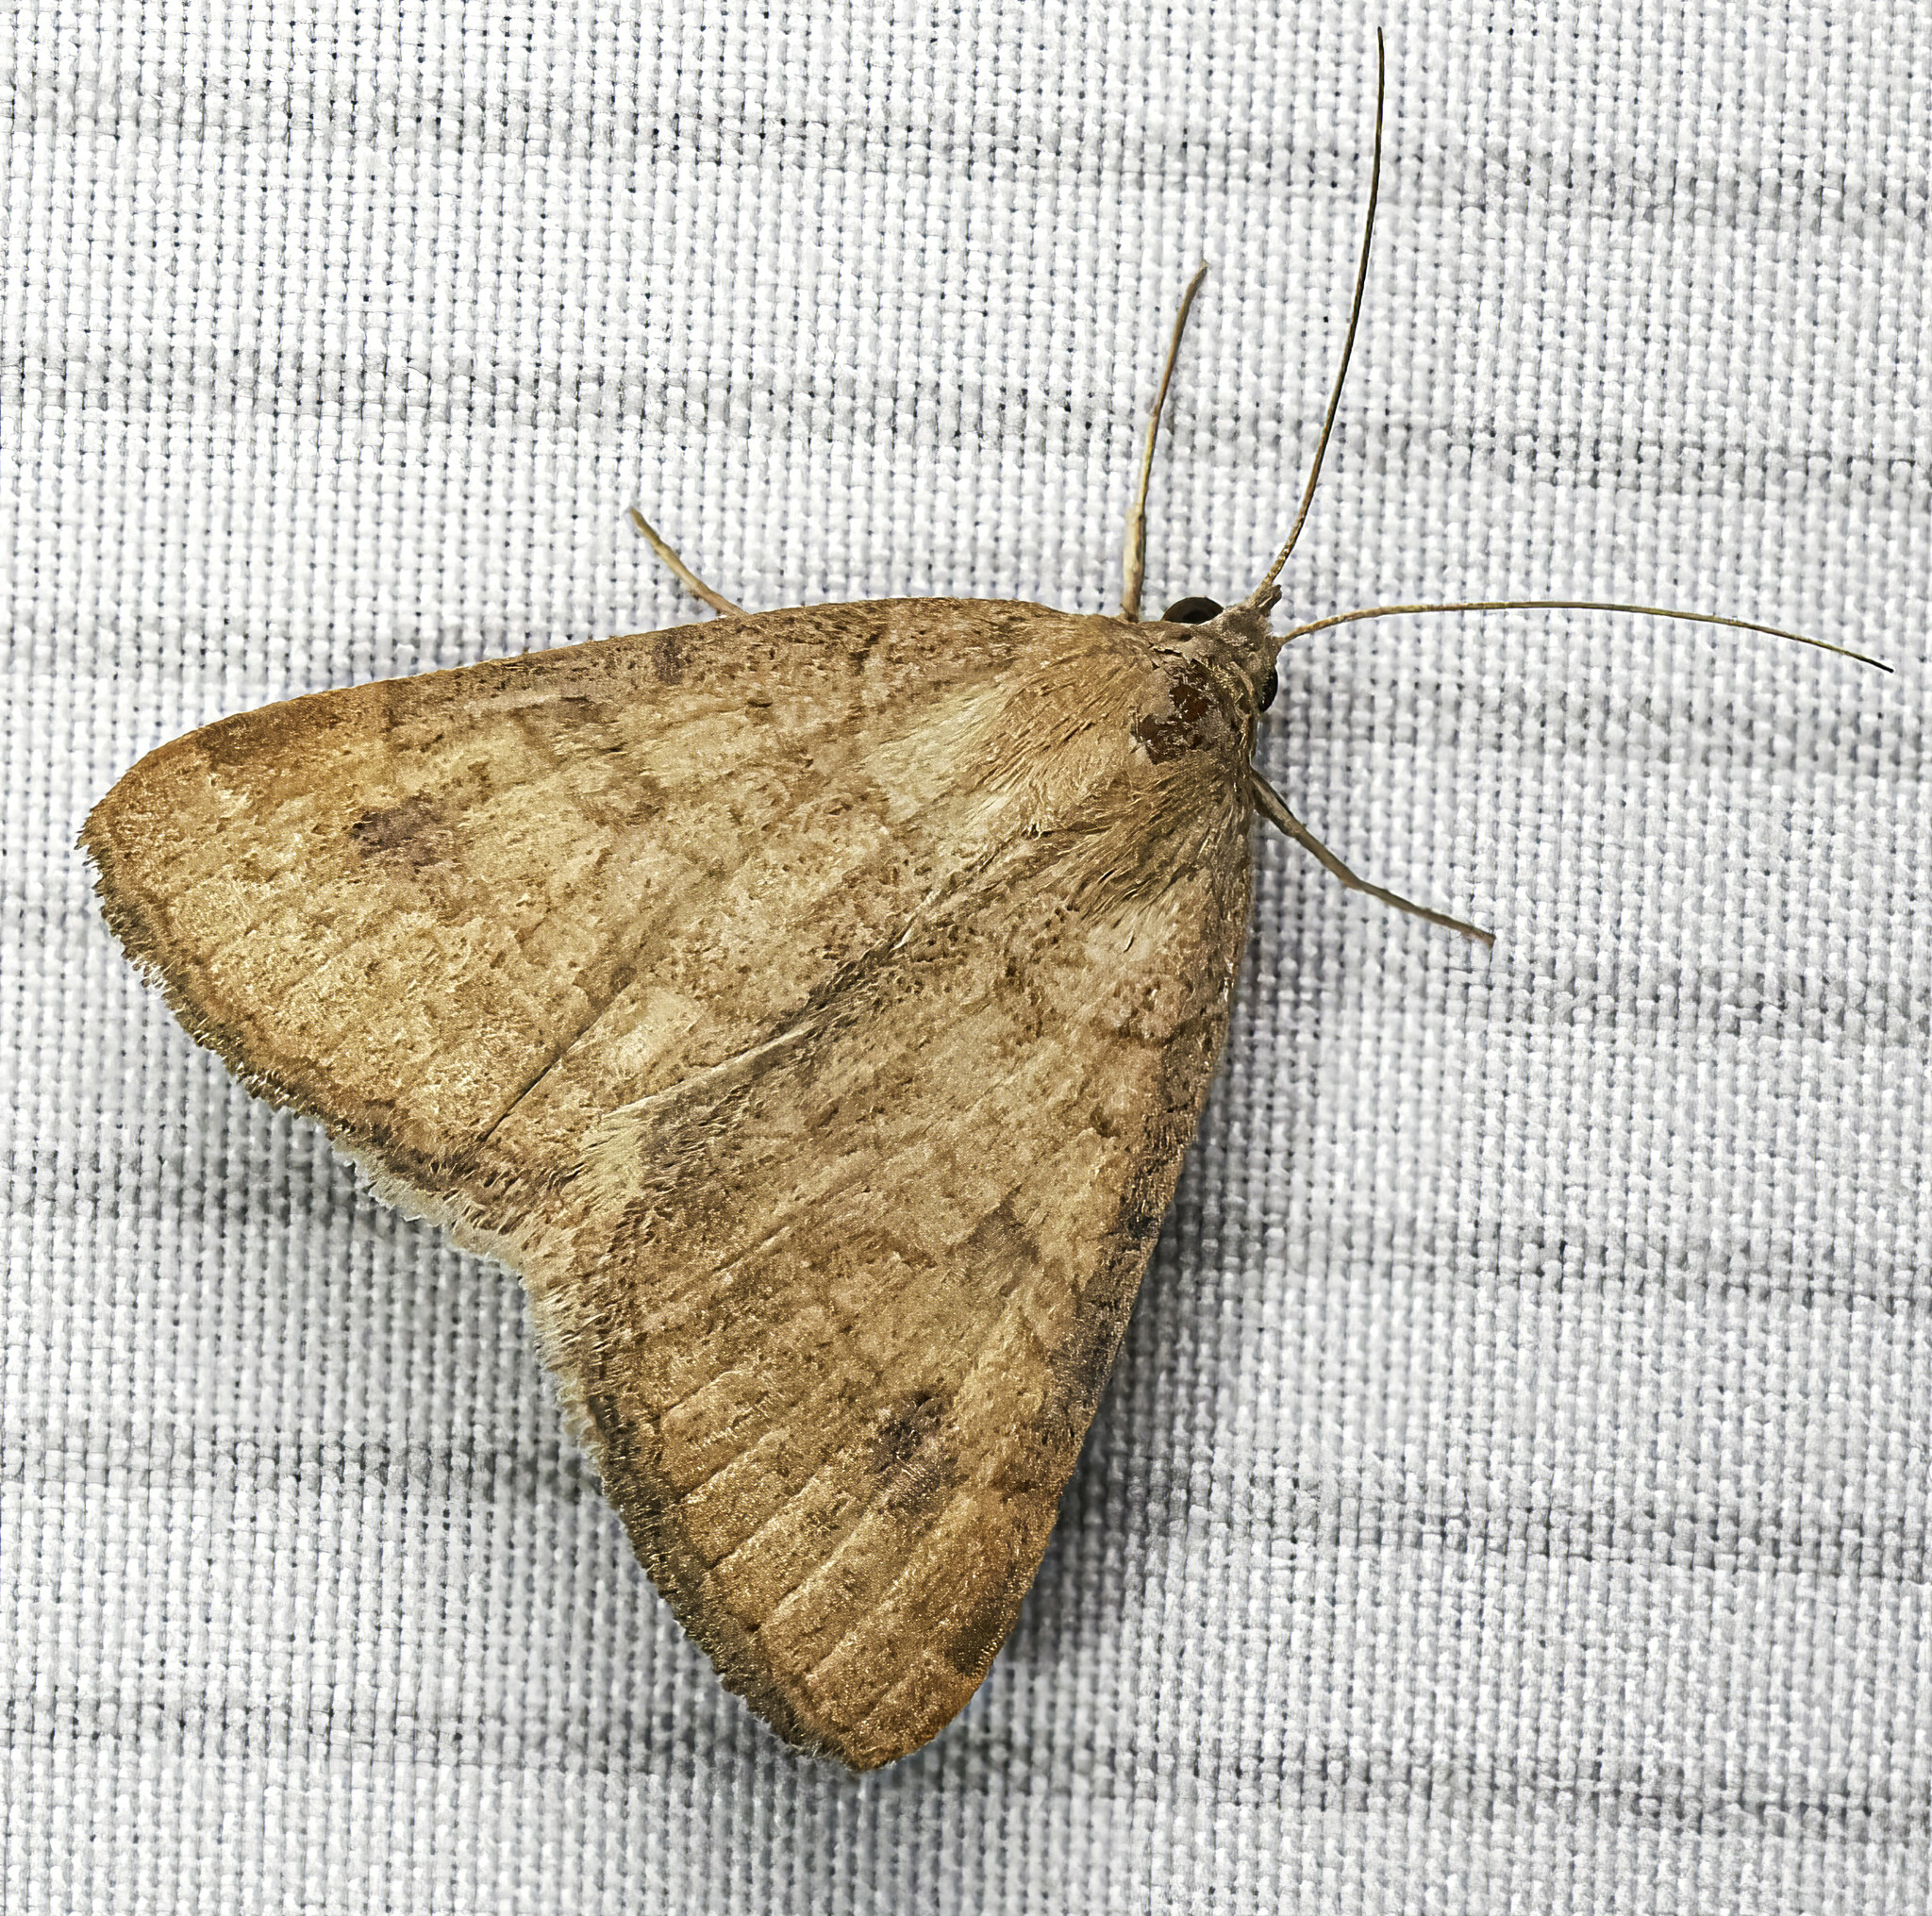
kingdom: Animalia
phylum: Arthropoda
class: Insecta
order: Lepidoptera
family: Erebidae
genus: Caenurgia
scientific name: Caenurgia chloropha
